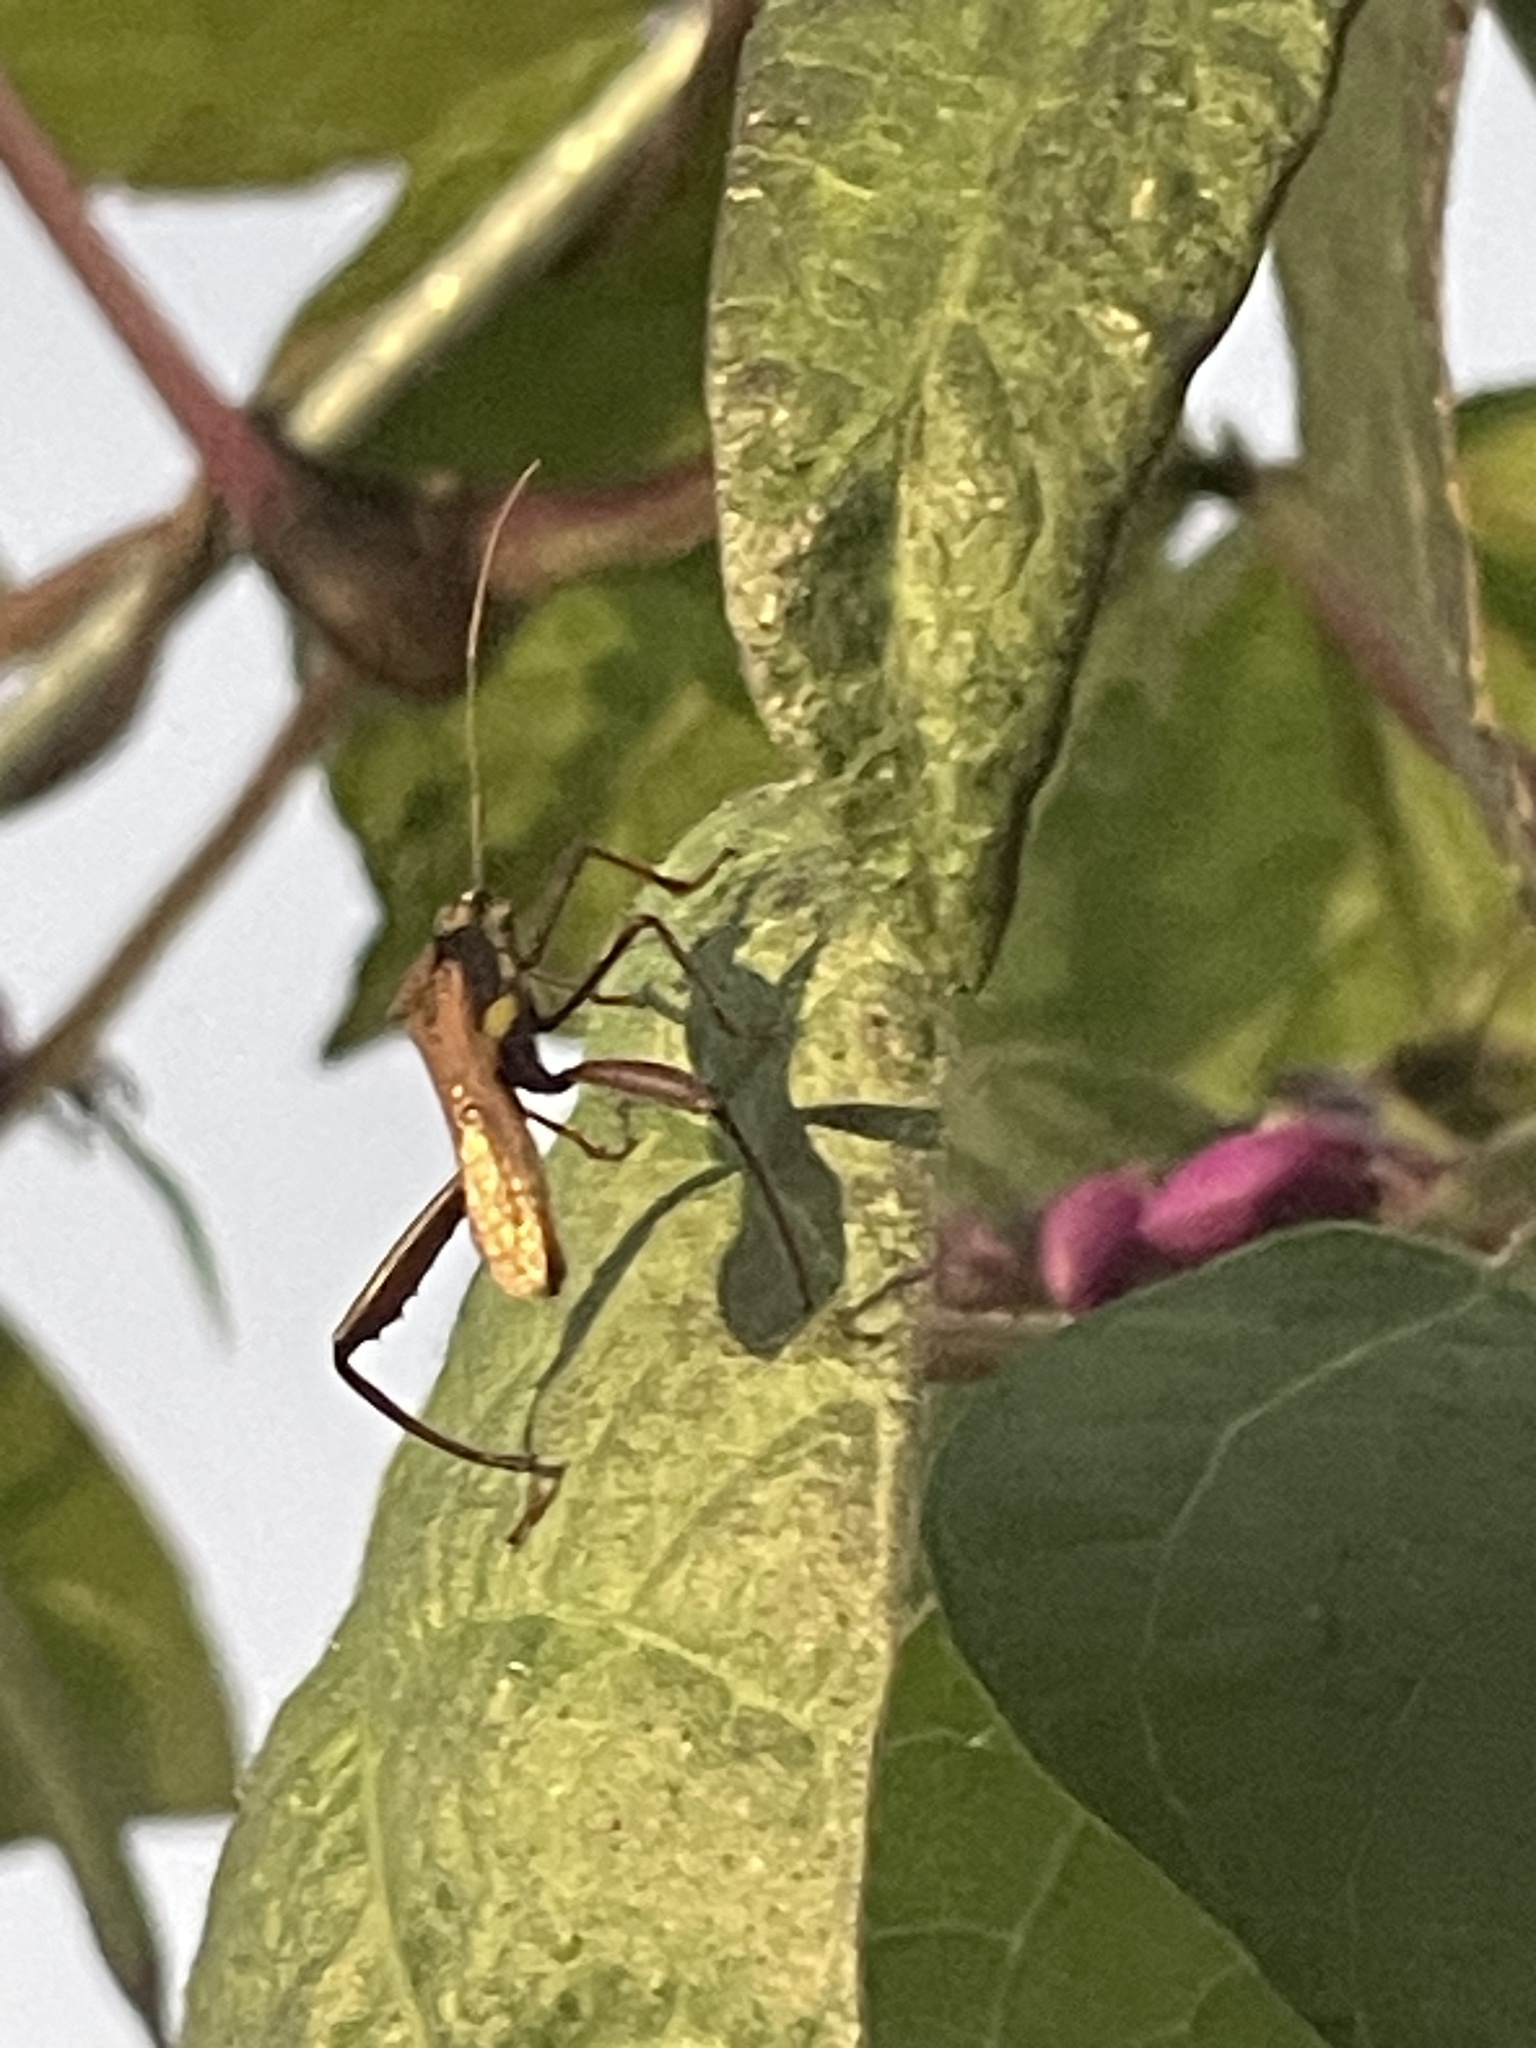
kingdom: Animalia
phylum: Arthropoda
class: Insecta
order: Hemiptera
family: Alydidae
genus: Riptortus
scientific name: Riptortus serripes
